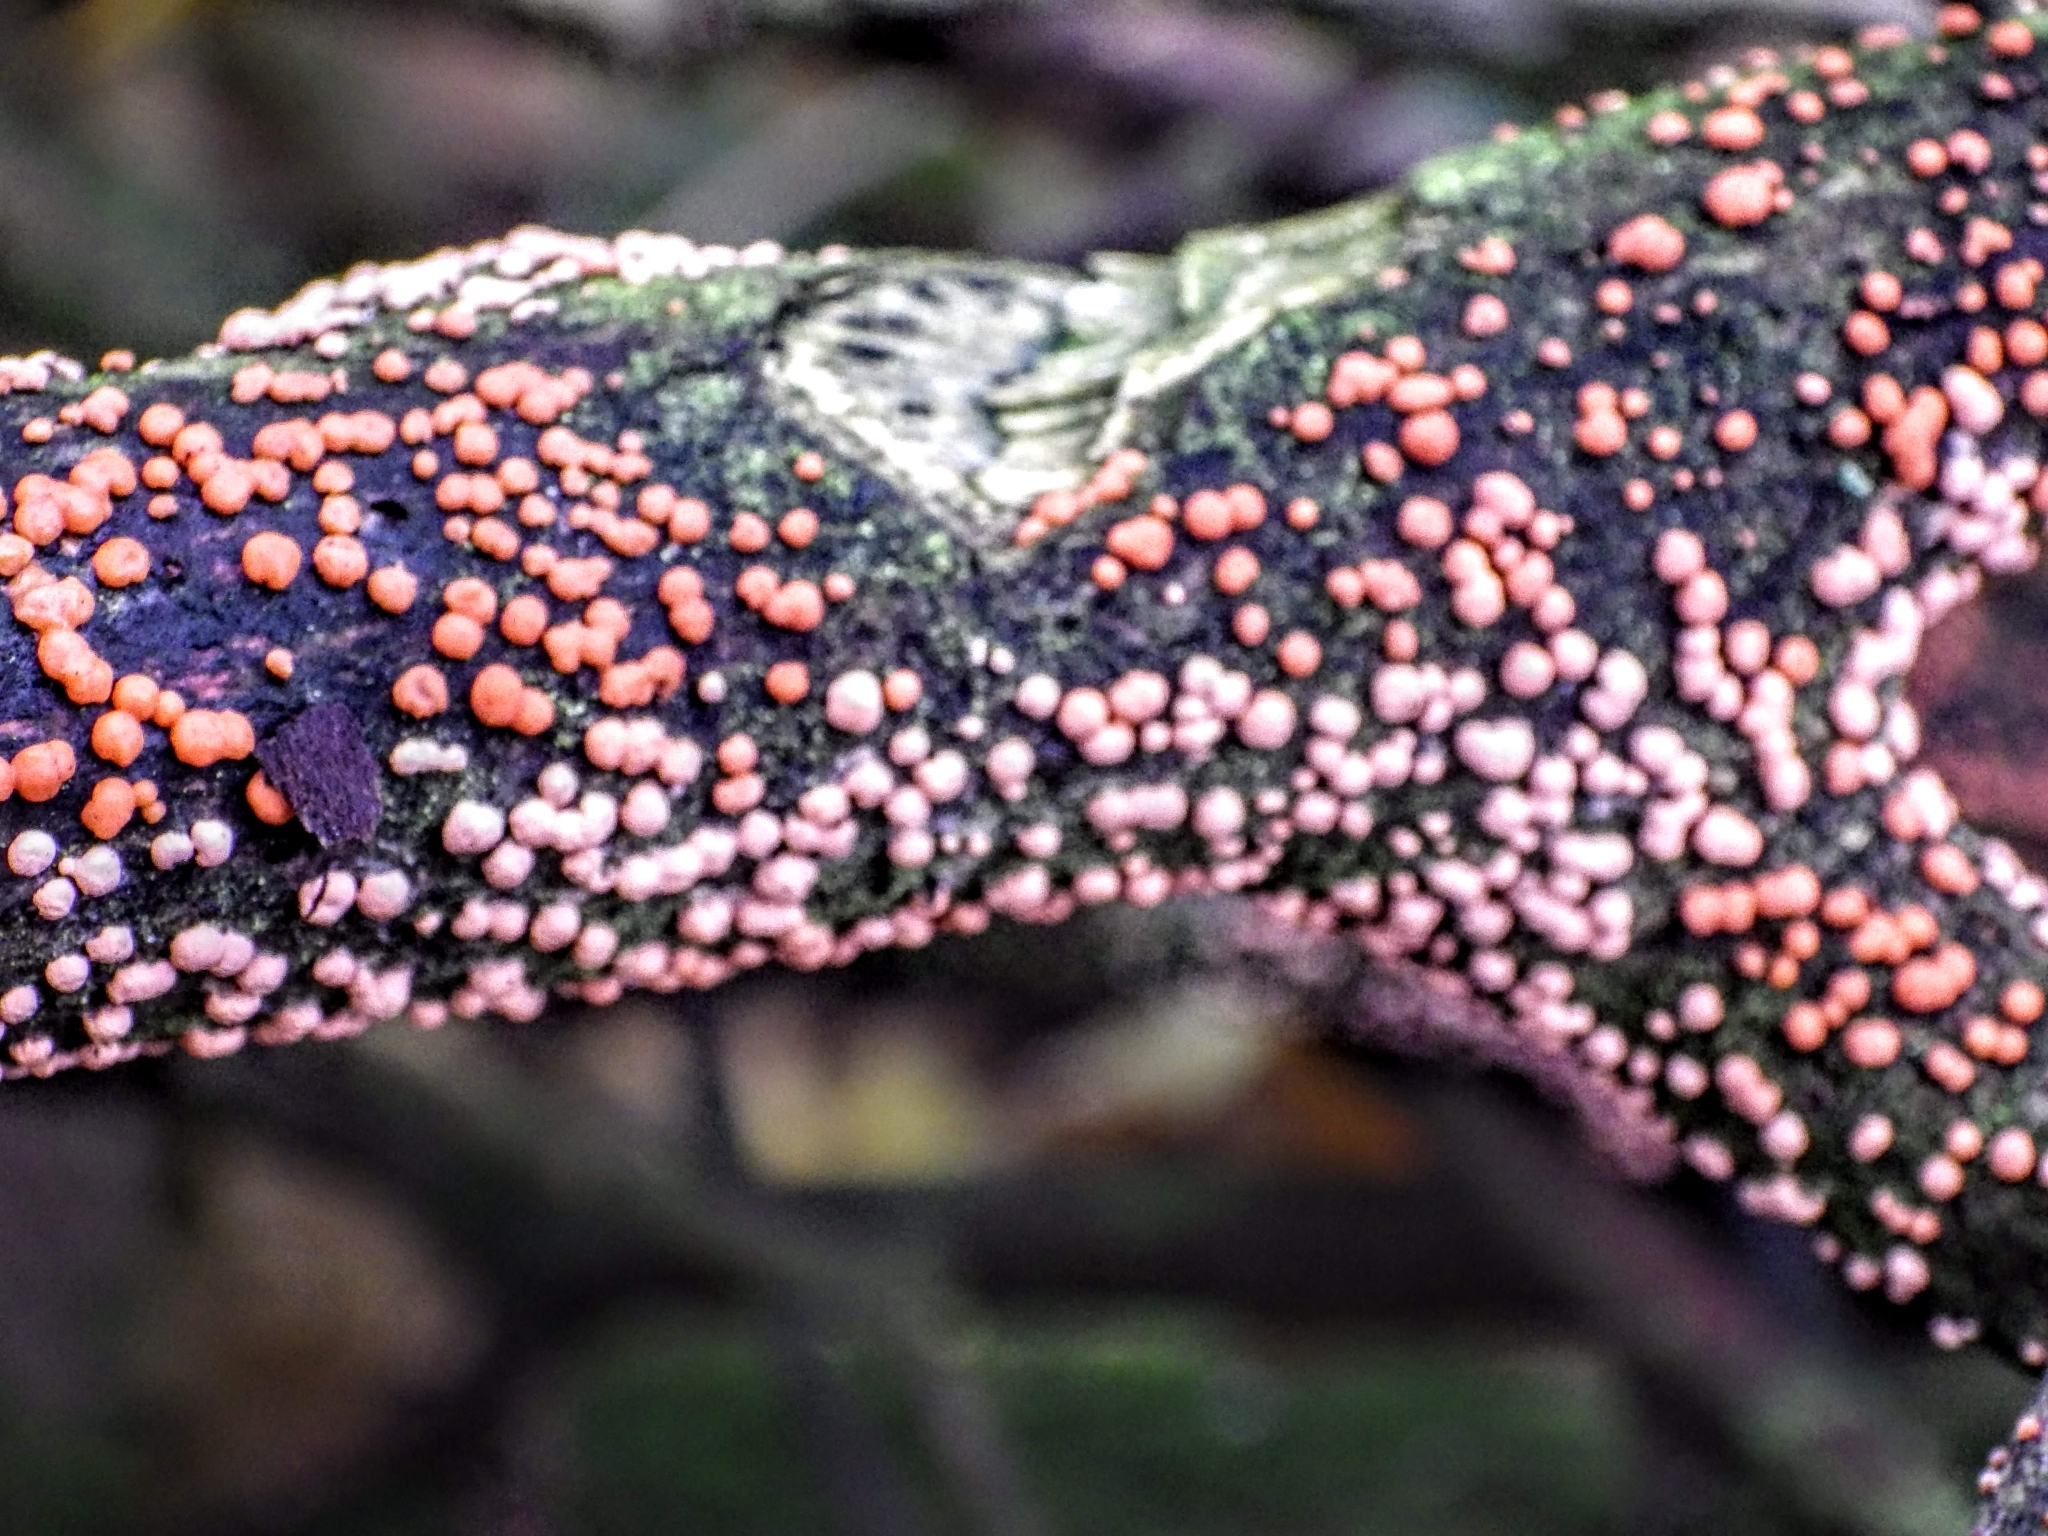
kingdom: Fungi
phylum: Ascomycota
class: Sordariomycetes
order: Hypocreales
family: Nectriaceae
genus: Nectria
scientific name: Nectria cinnabarina
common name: Coral spot
